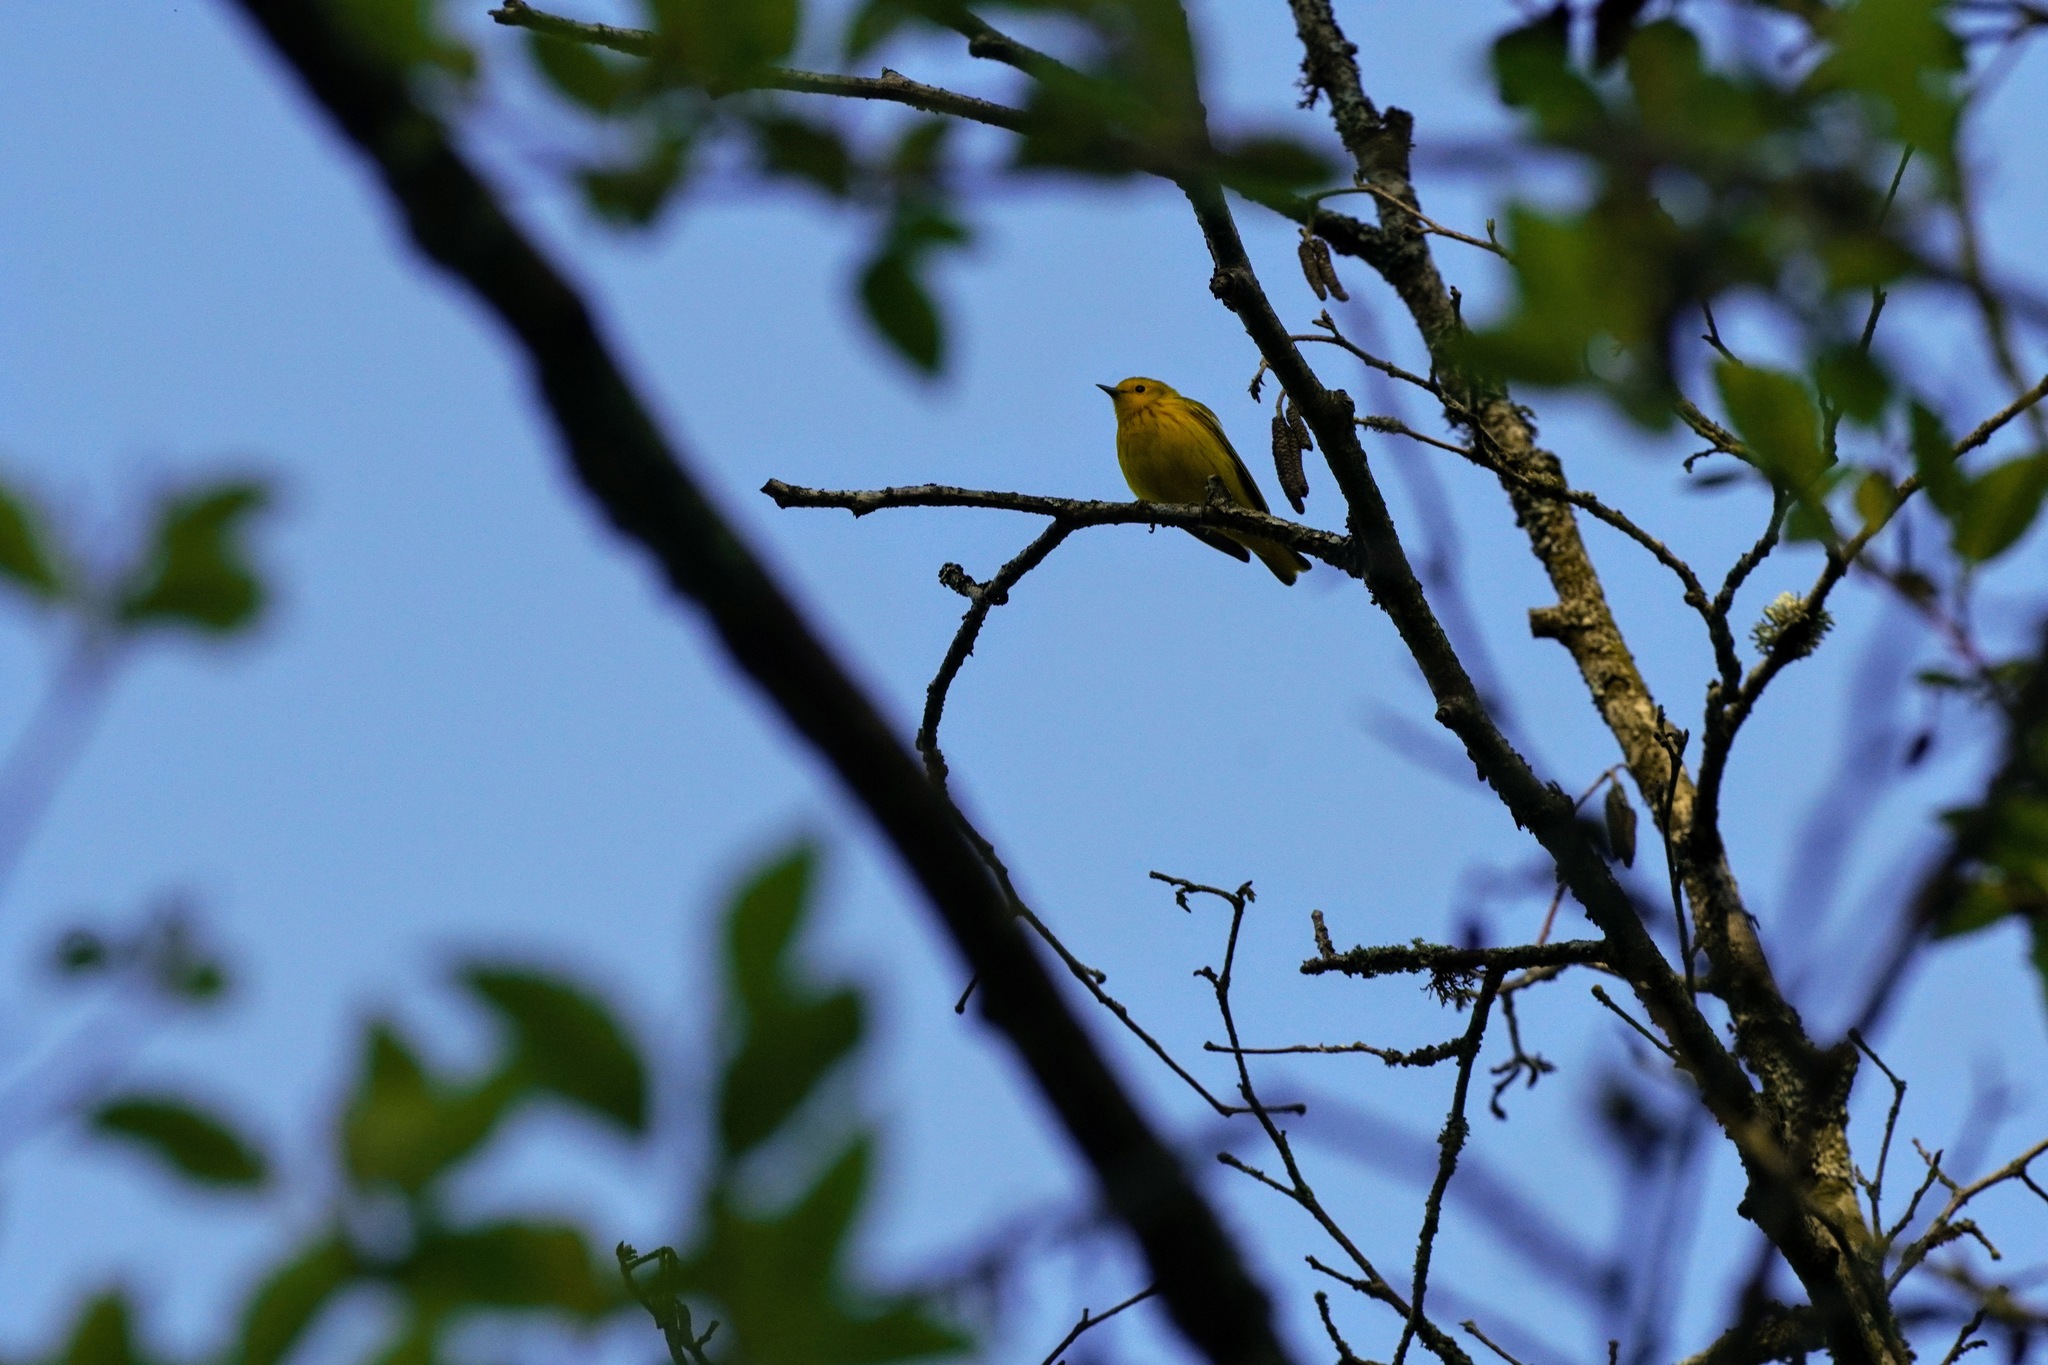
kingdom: Animalia
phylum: Chordata
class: Aves
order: Passeriformes
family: Parulidae
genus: Setophaga
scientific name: Setophaga petechia
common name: Yellow warbler
